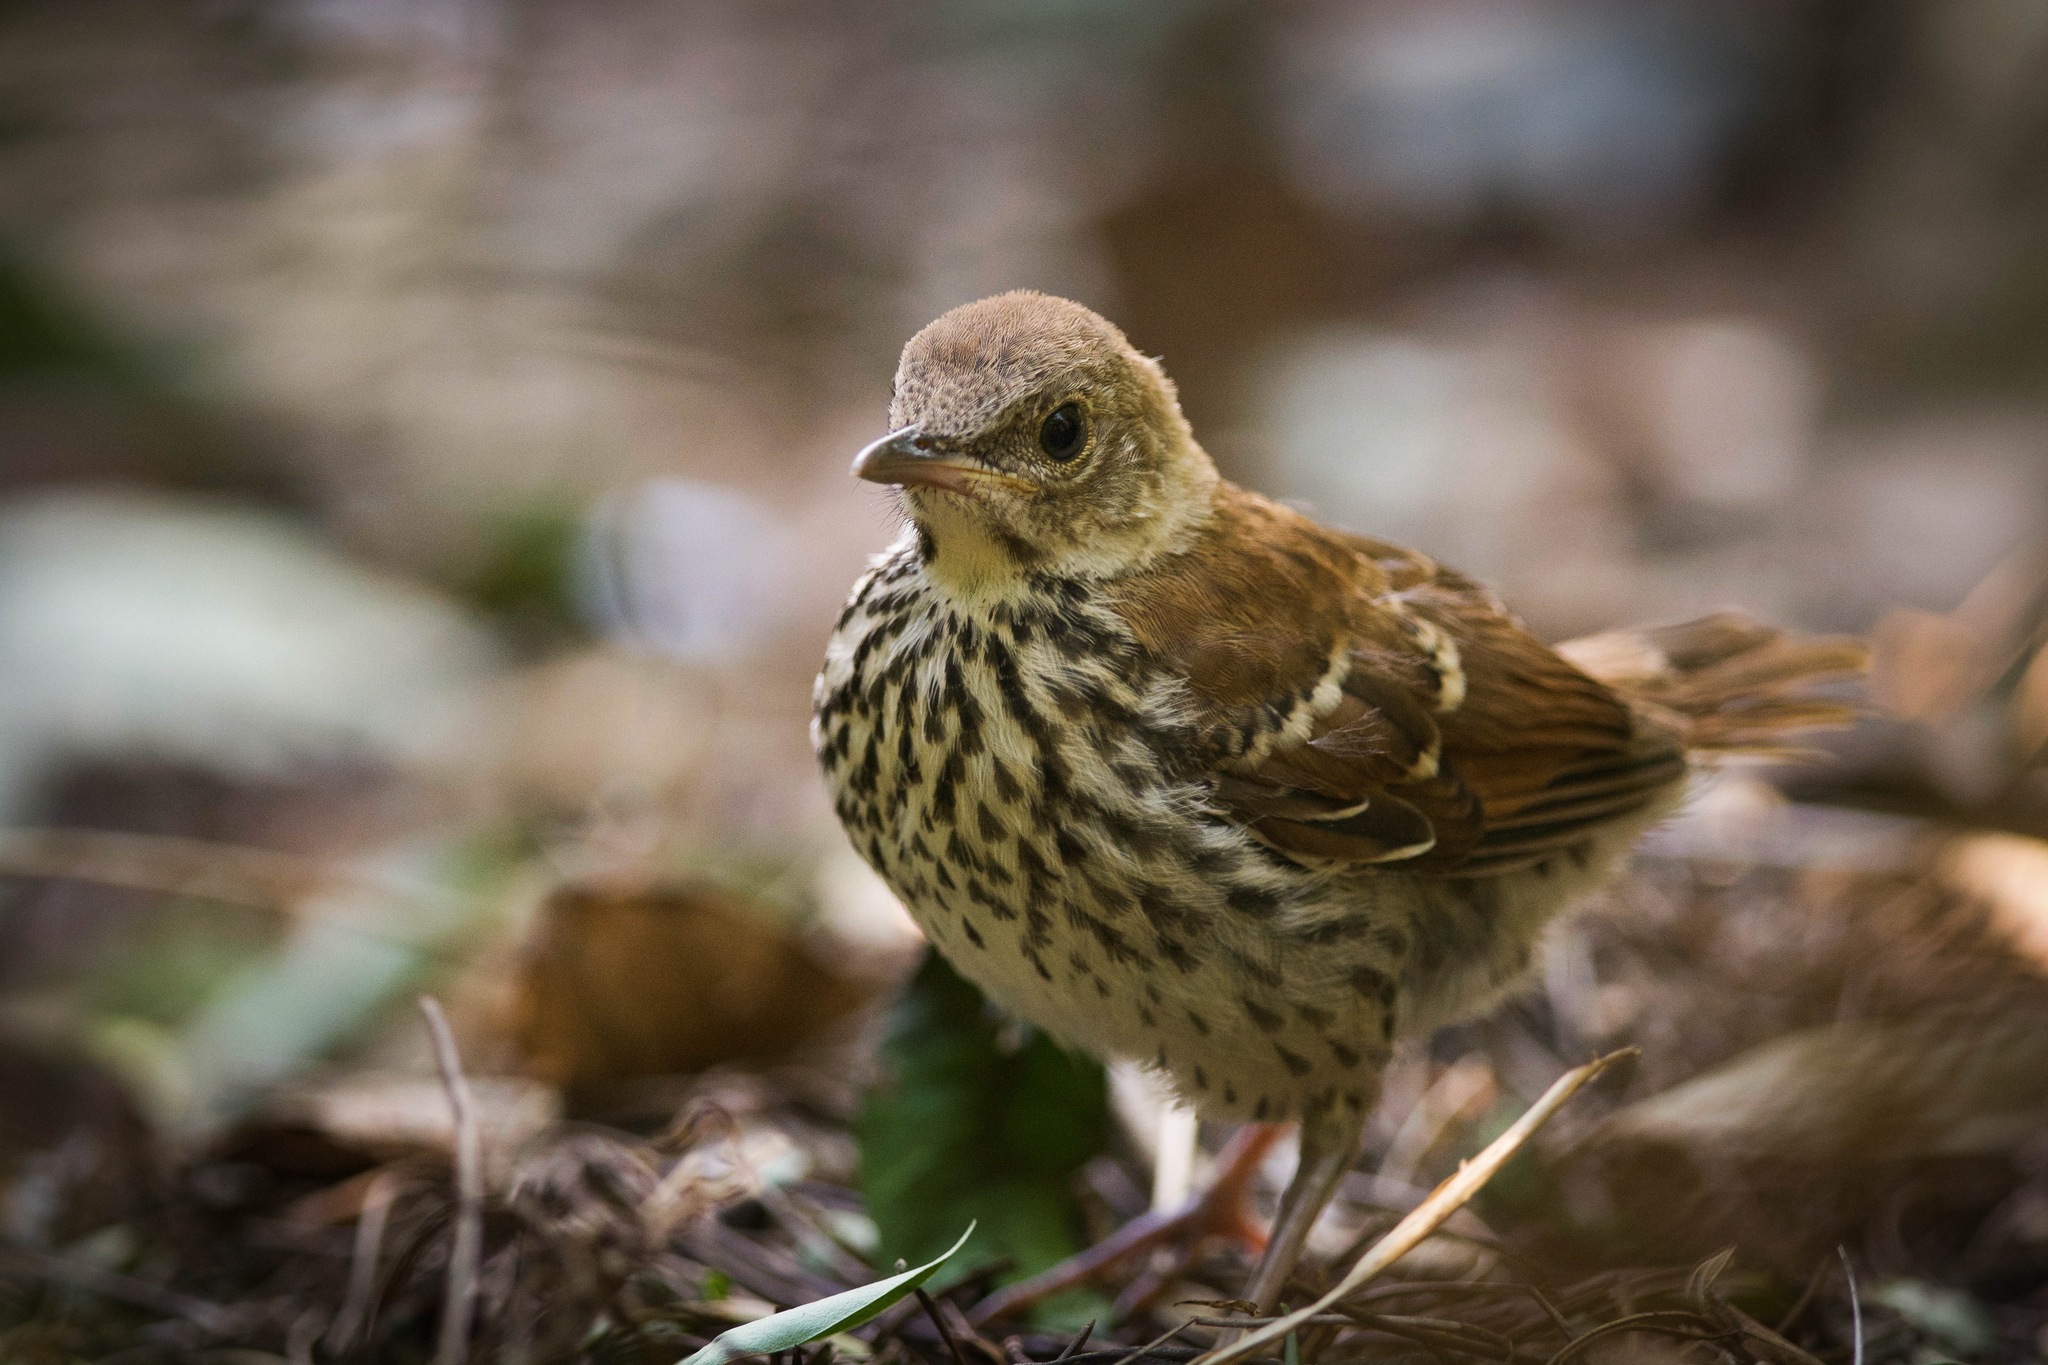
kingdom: Animalia
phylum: Chordata
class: Aves
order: Passeriformes
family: Mimidae
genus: Toxostoma
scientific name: Toxostoma rufum
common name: Brown thrasher
